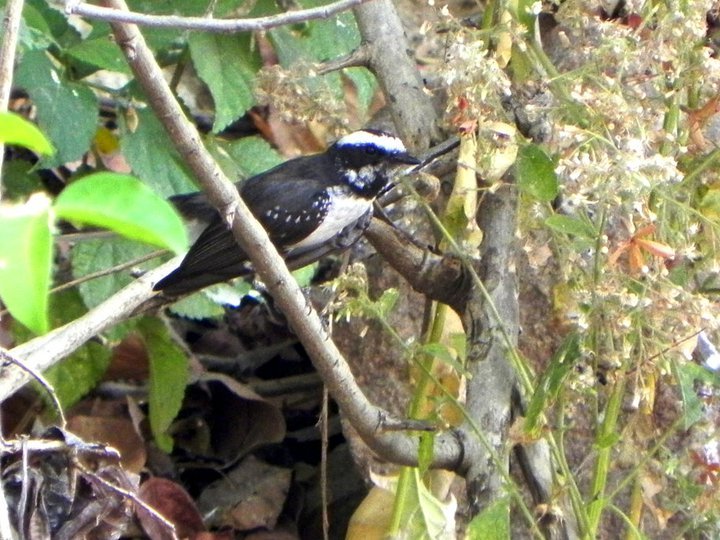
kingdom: Animalia
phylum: Chordata
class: Aves
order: Passeriformes
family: Rhipiduridae
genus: Rhipidura
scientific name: Rhipidura aureola
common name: White-browed fantail
